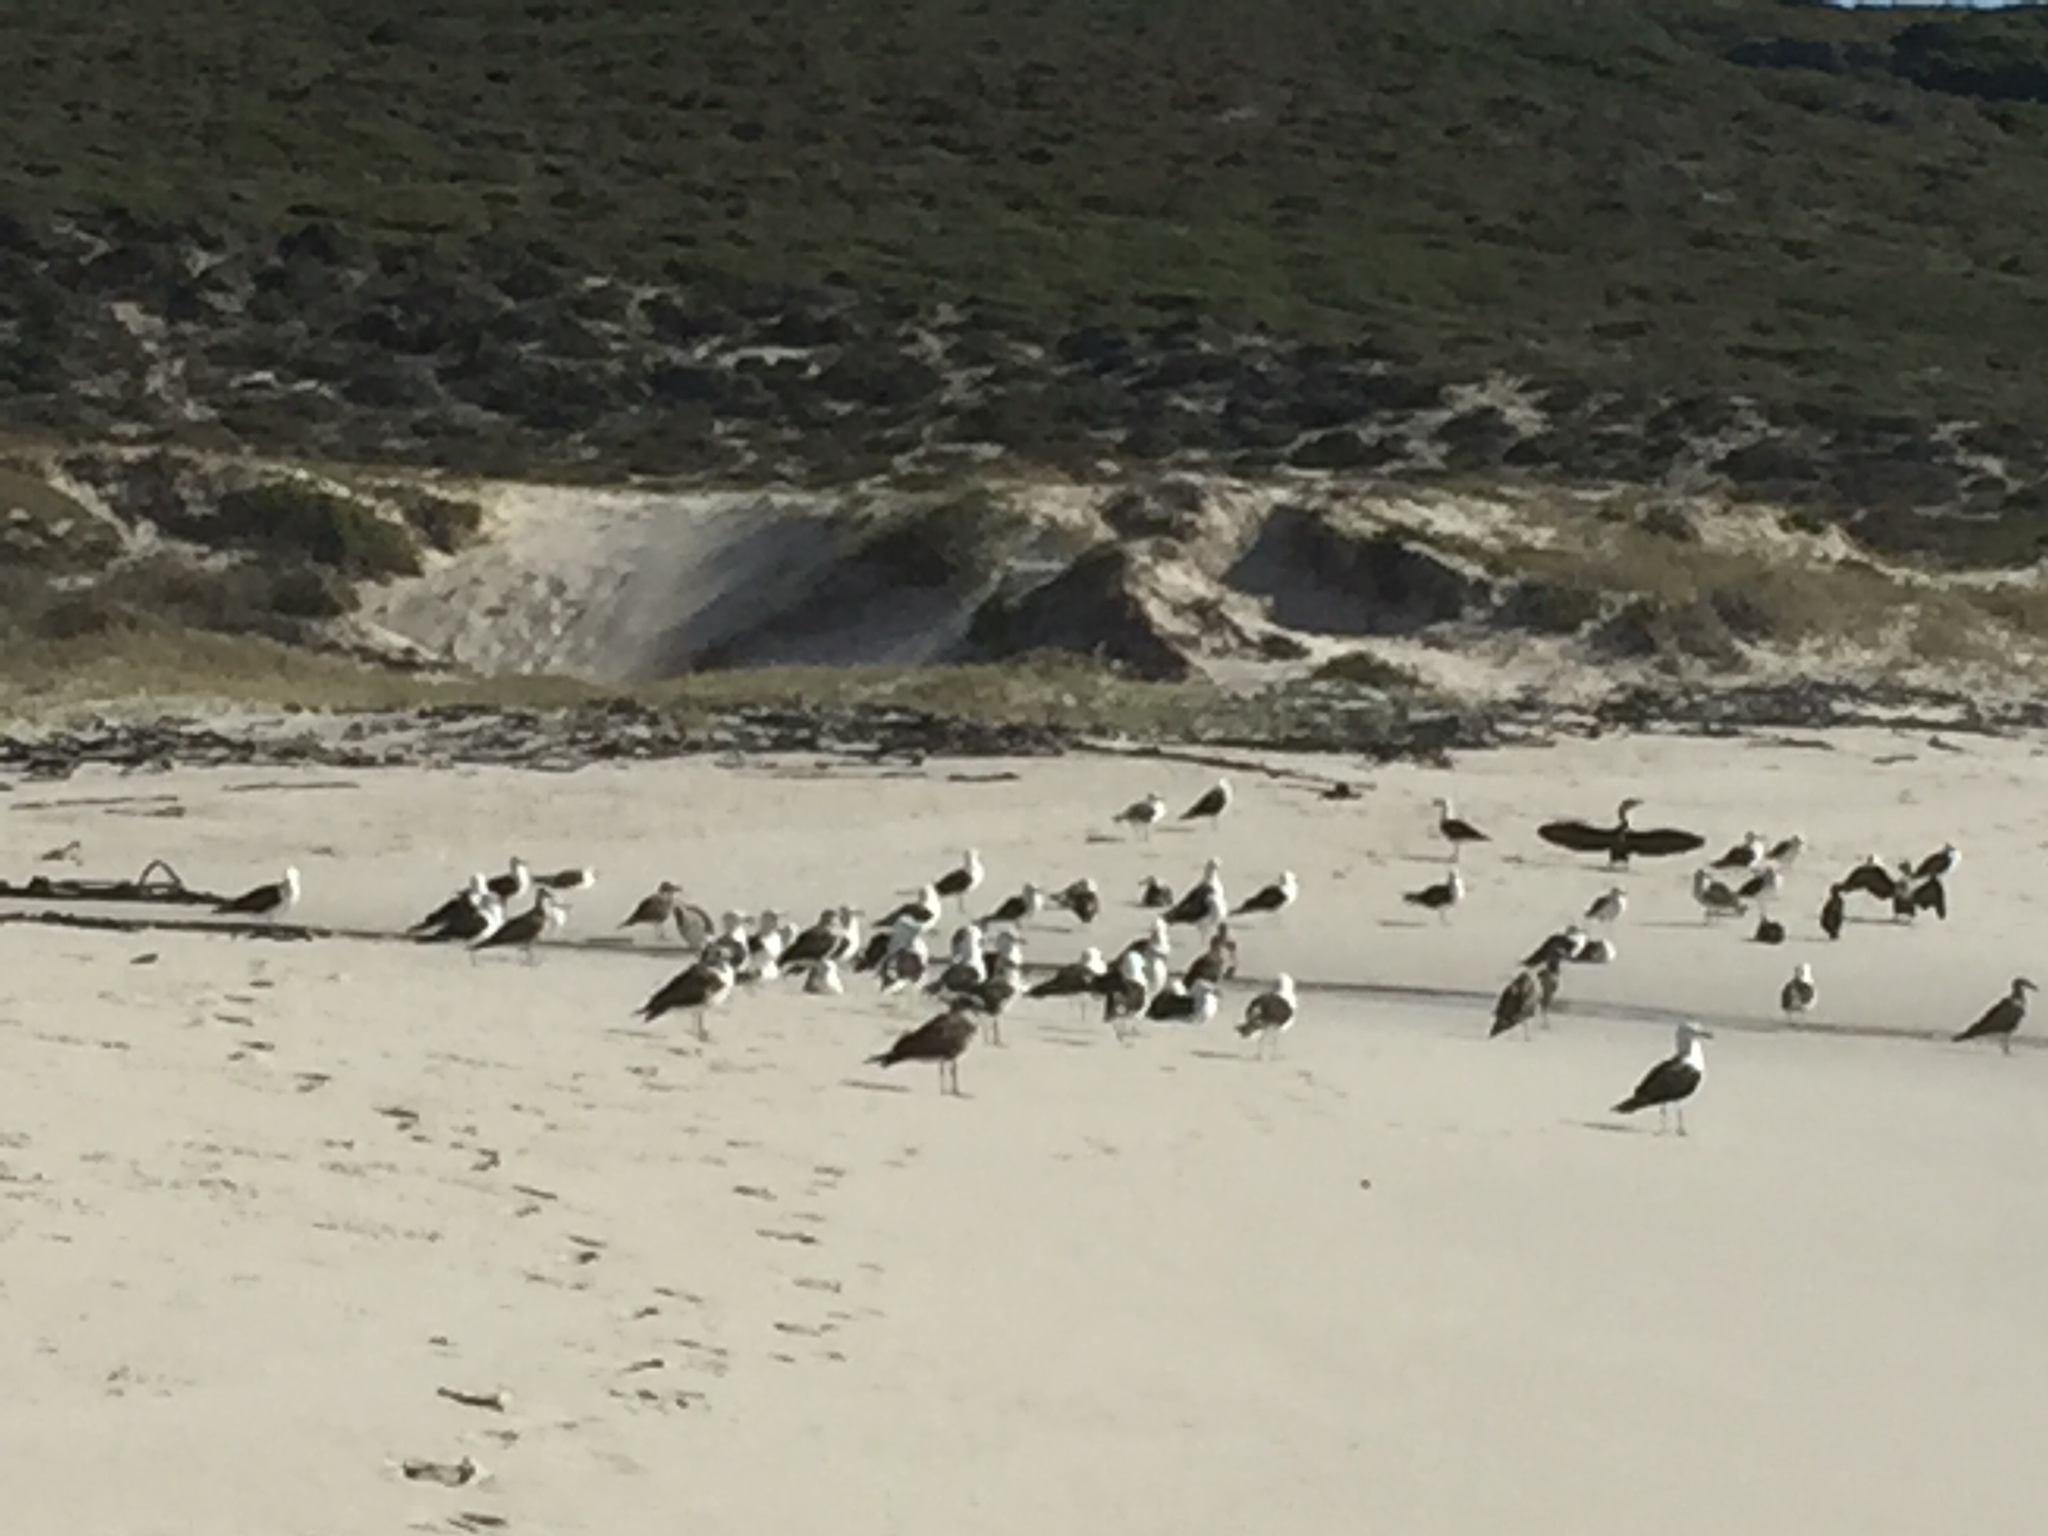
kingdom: Animalia
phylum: Chordata
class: Aves
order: Charadriiformes
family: Laridae
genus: Larus
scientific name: Larus dominicanus
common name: Kelp gull
